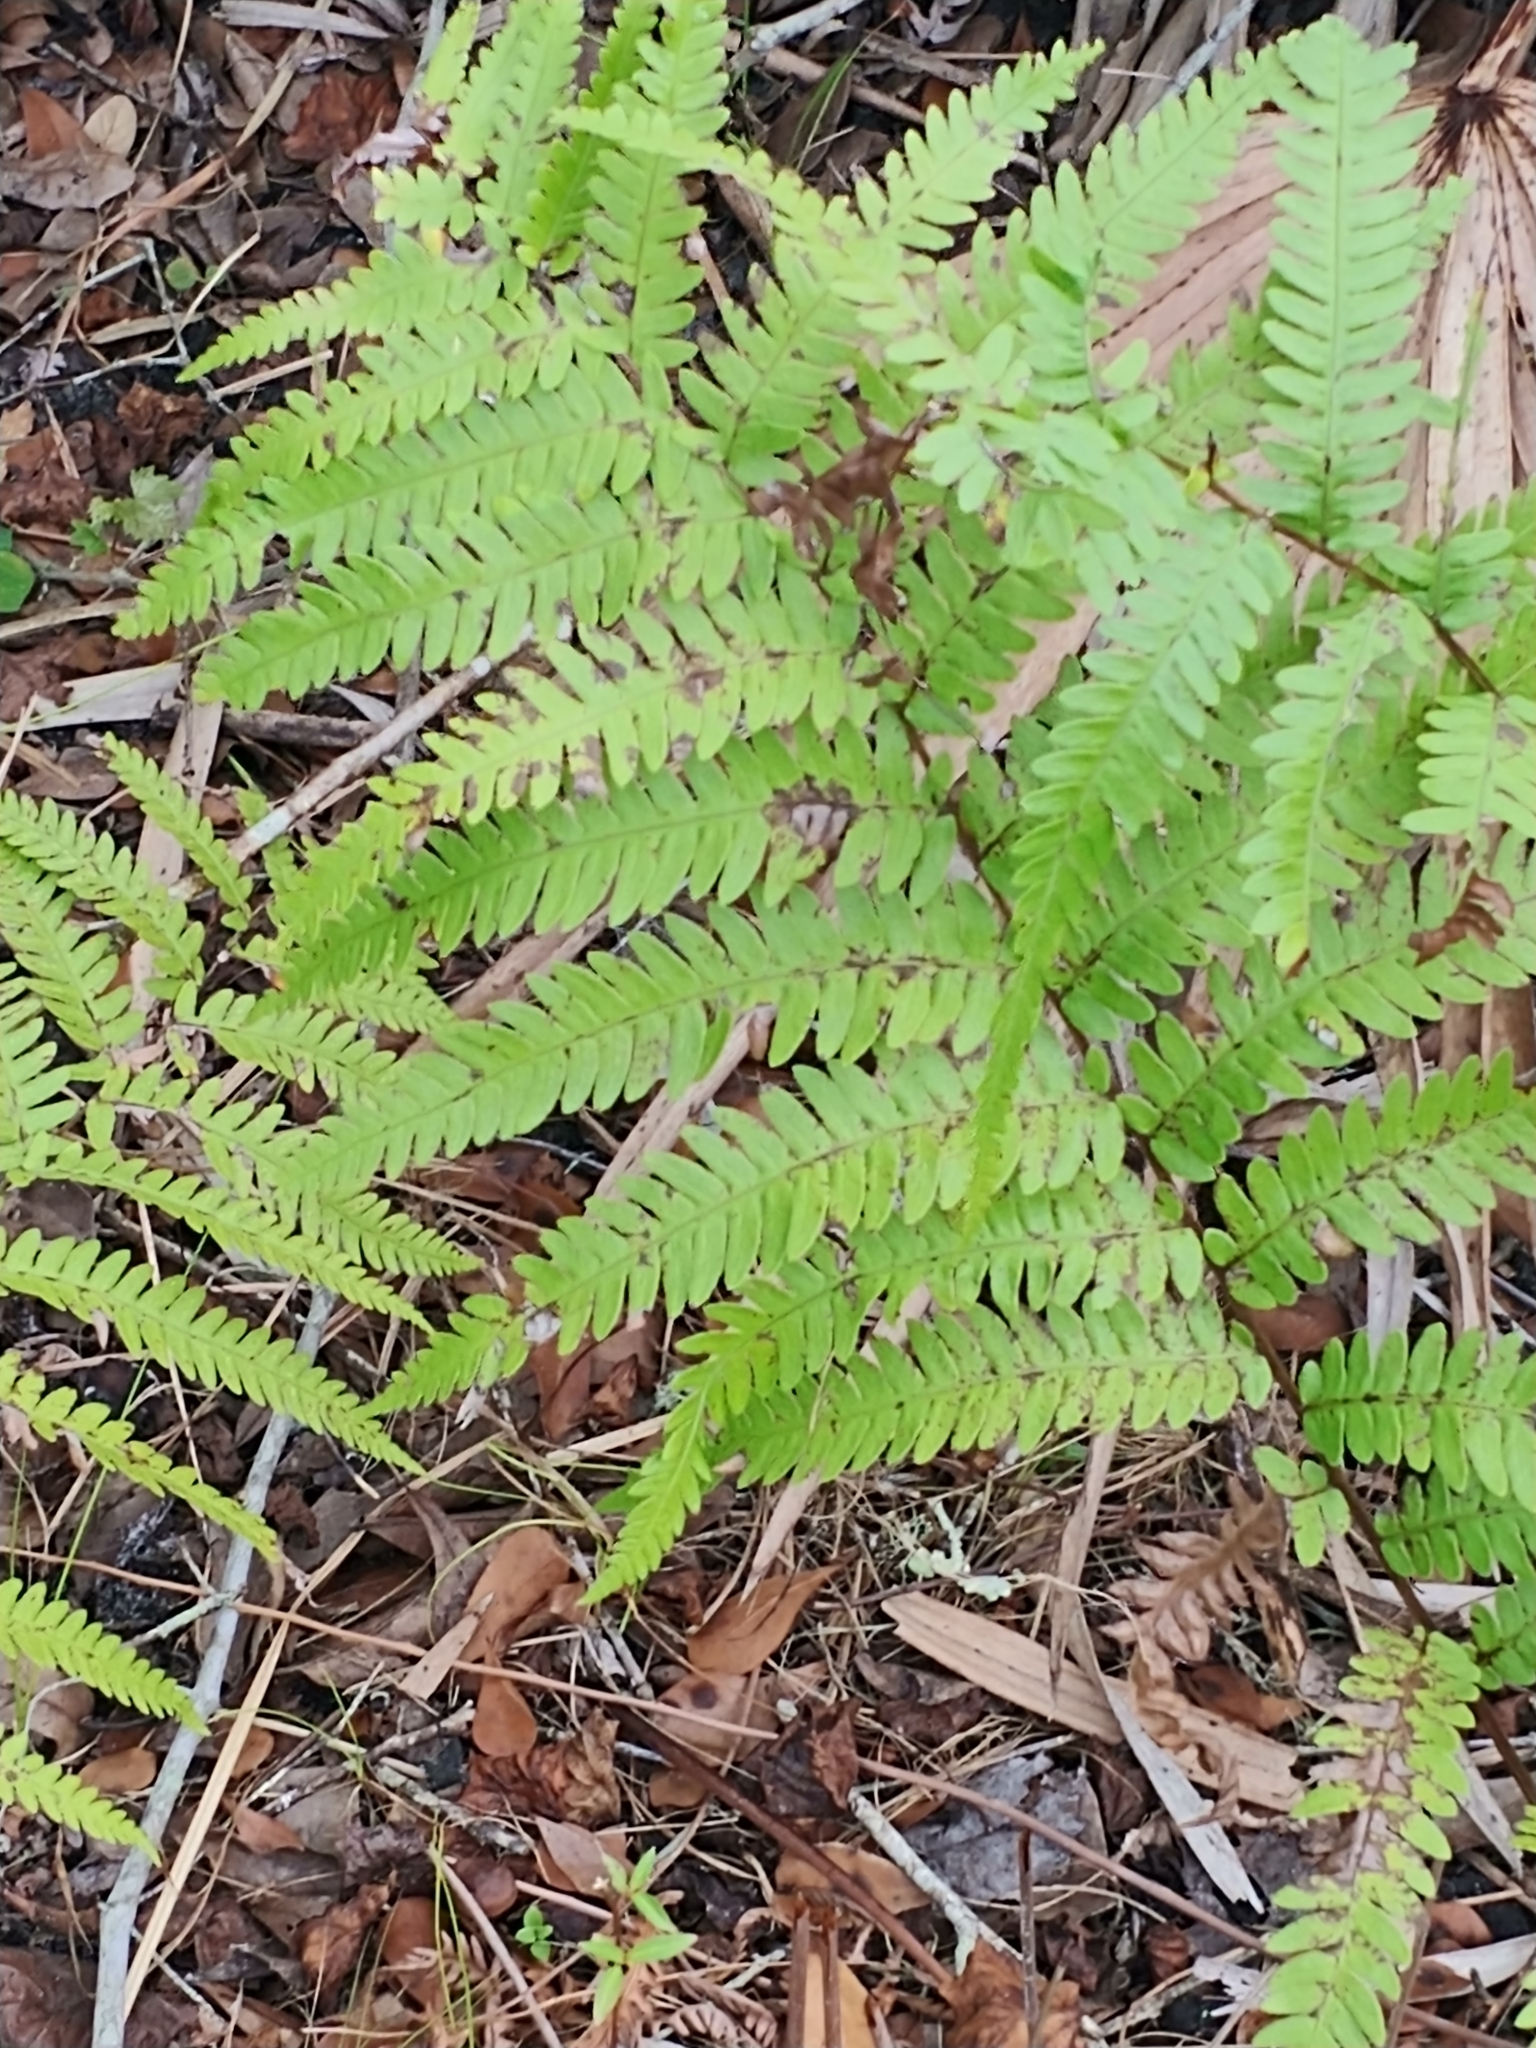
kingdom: Plantae
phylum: Tracheophyta
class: Polypodiopsida
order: Polypodiales
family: Blechnaceae
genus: Anchistea
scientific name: Anchistea virginica
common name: Virginia chain fern
